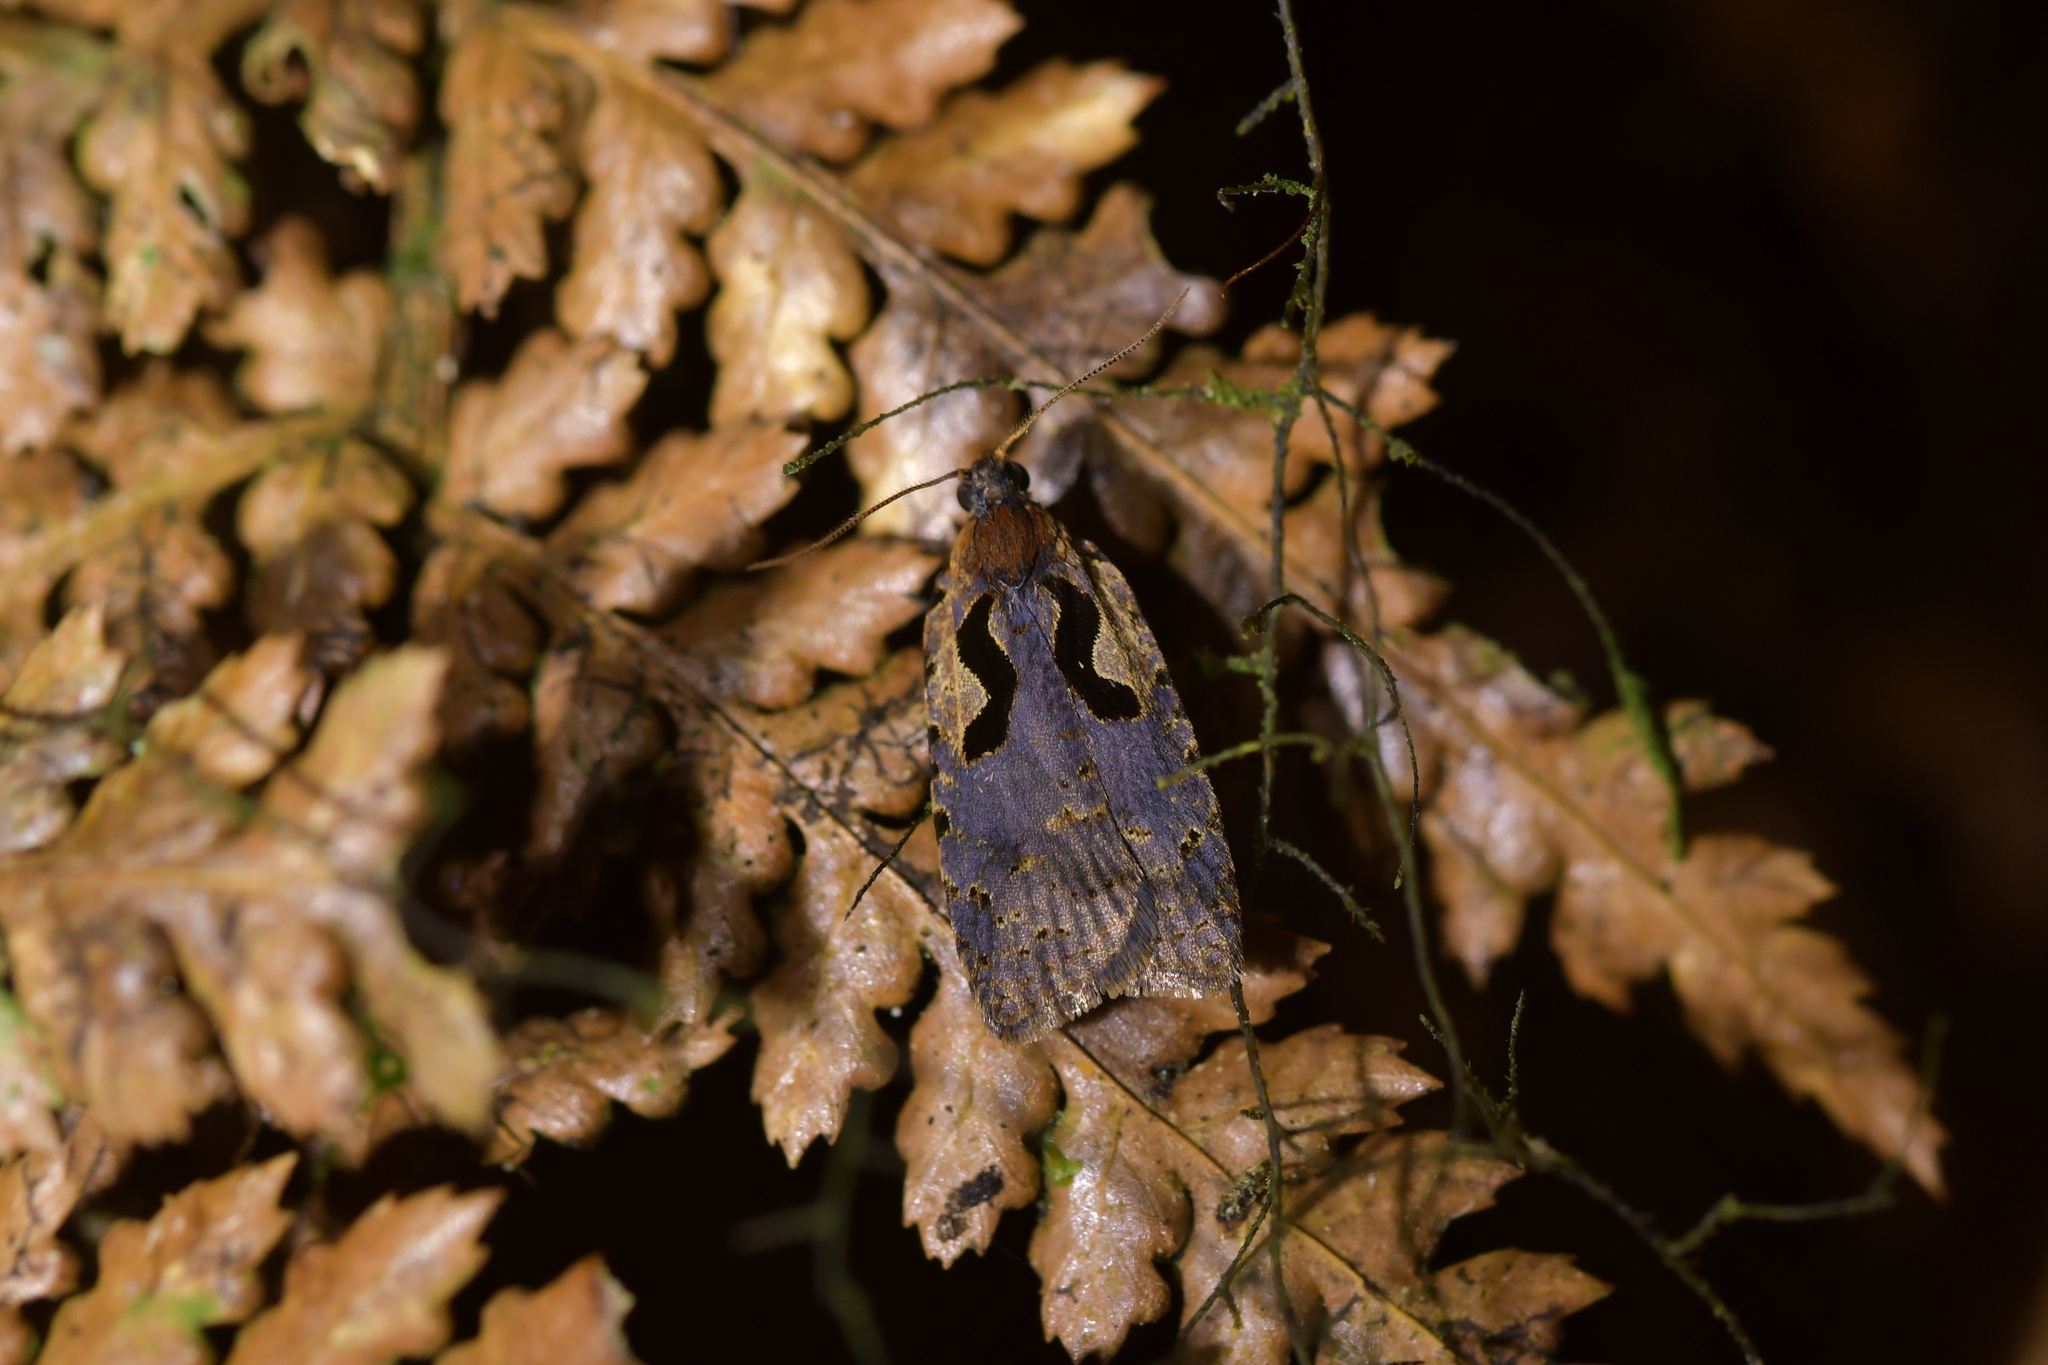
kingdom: Animalia
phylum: Arthropoda
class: Insecta
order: Lepidoptera
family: Tortricidae
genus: Cnephasia
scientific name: Cnephasia jactatana
